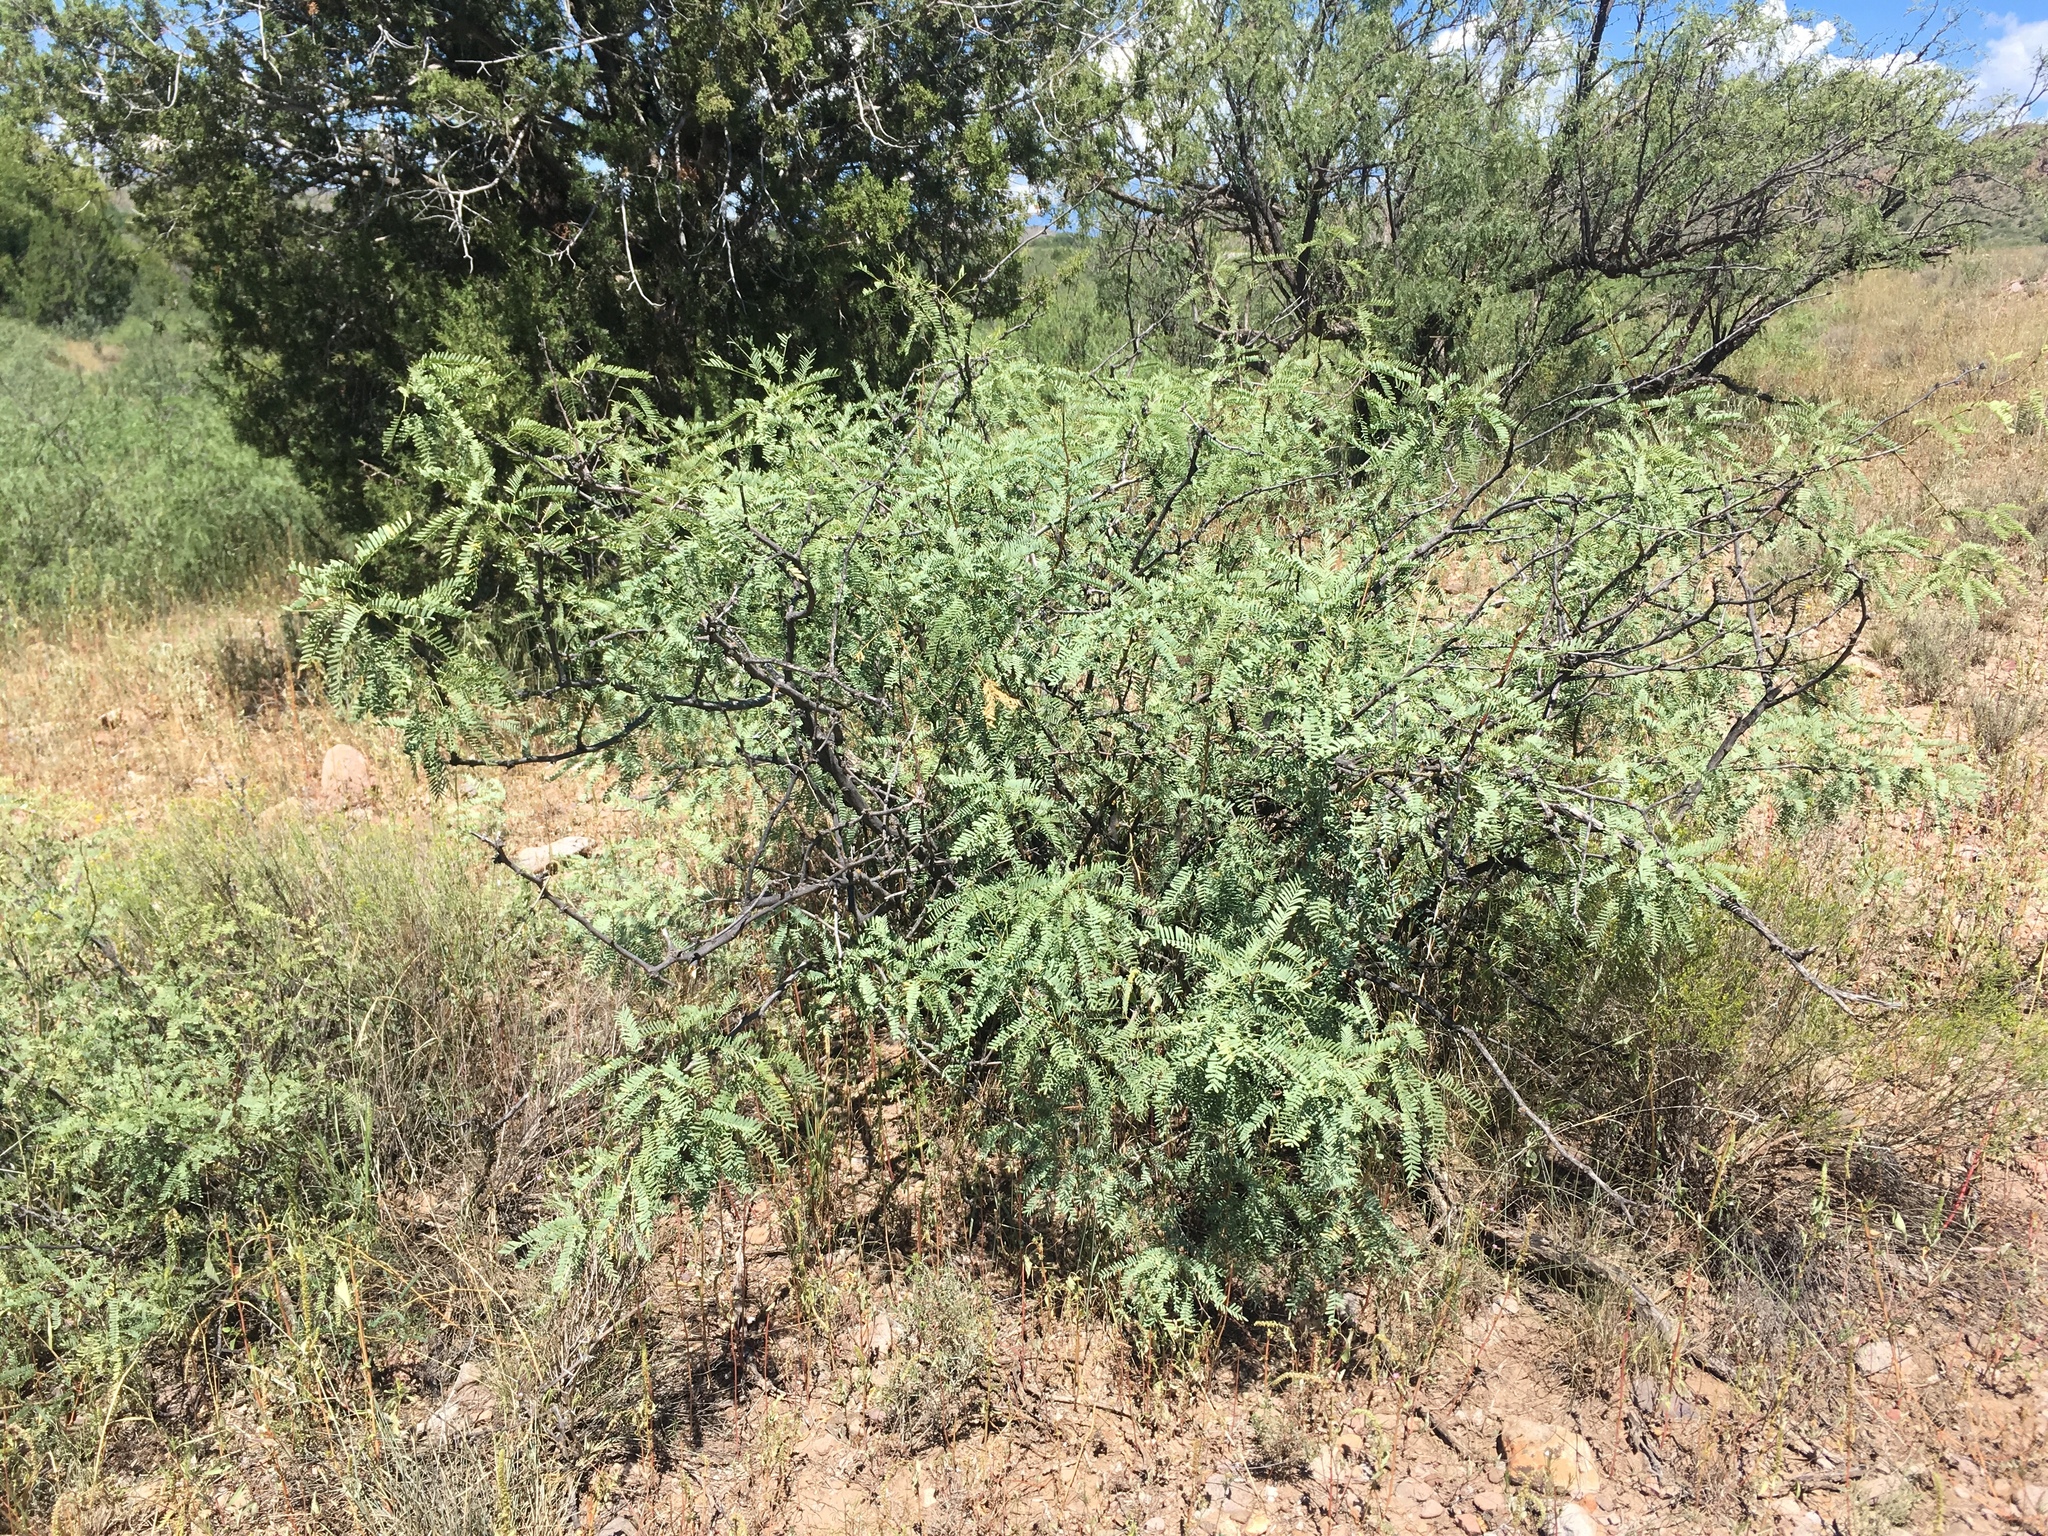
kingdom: Plantae
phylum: Tracheophyta
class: Magnoliopsida
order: Fabales
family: Fabaceae
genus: Prosopis
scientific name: Prosopis glandulosa
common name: Honey mesquite
